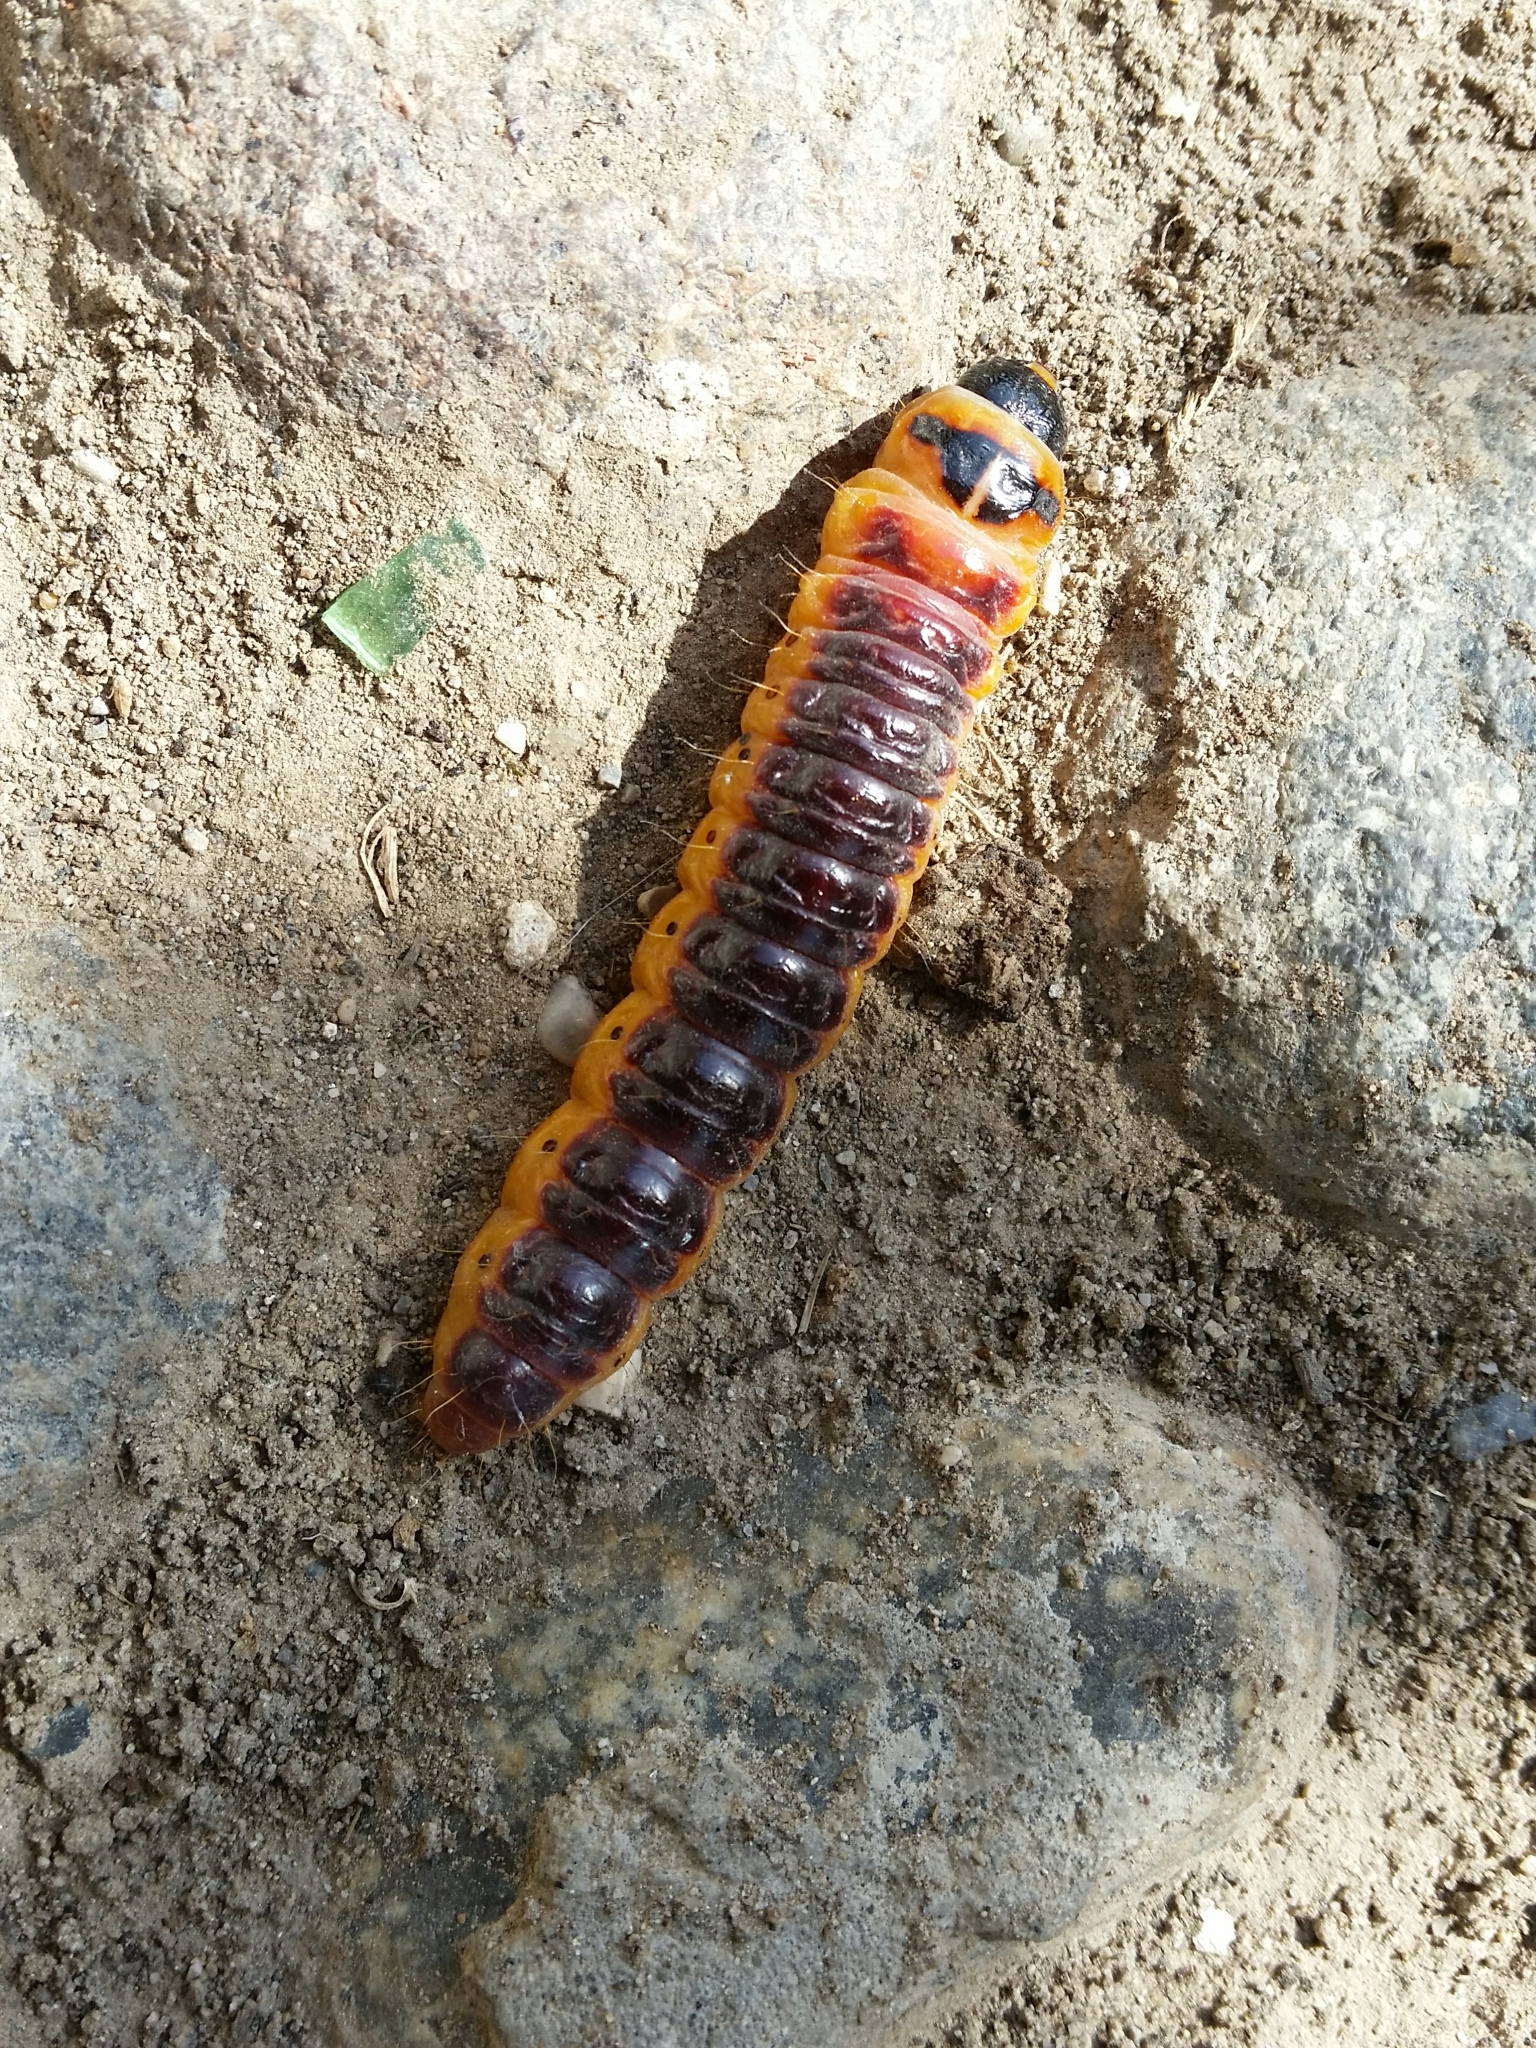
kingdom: Animalia
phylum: Arthropoda
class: Insecta
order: Lepidoptera
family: Cossidae
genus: Cossus
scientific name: Cossus cossus
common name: Goat moth
